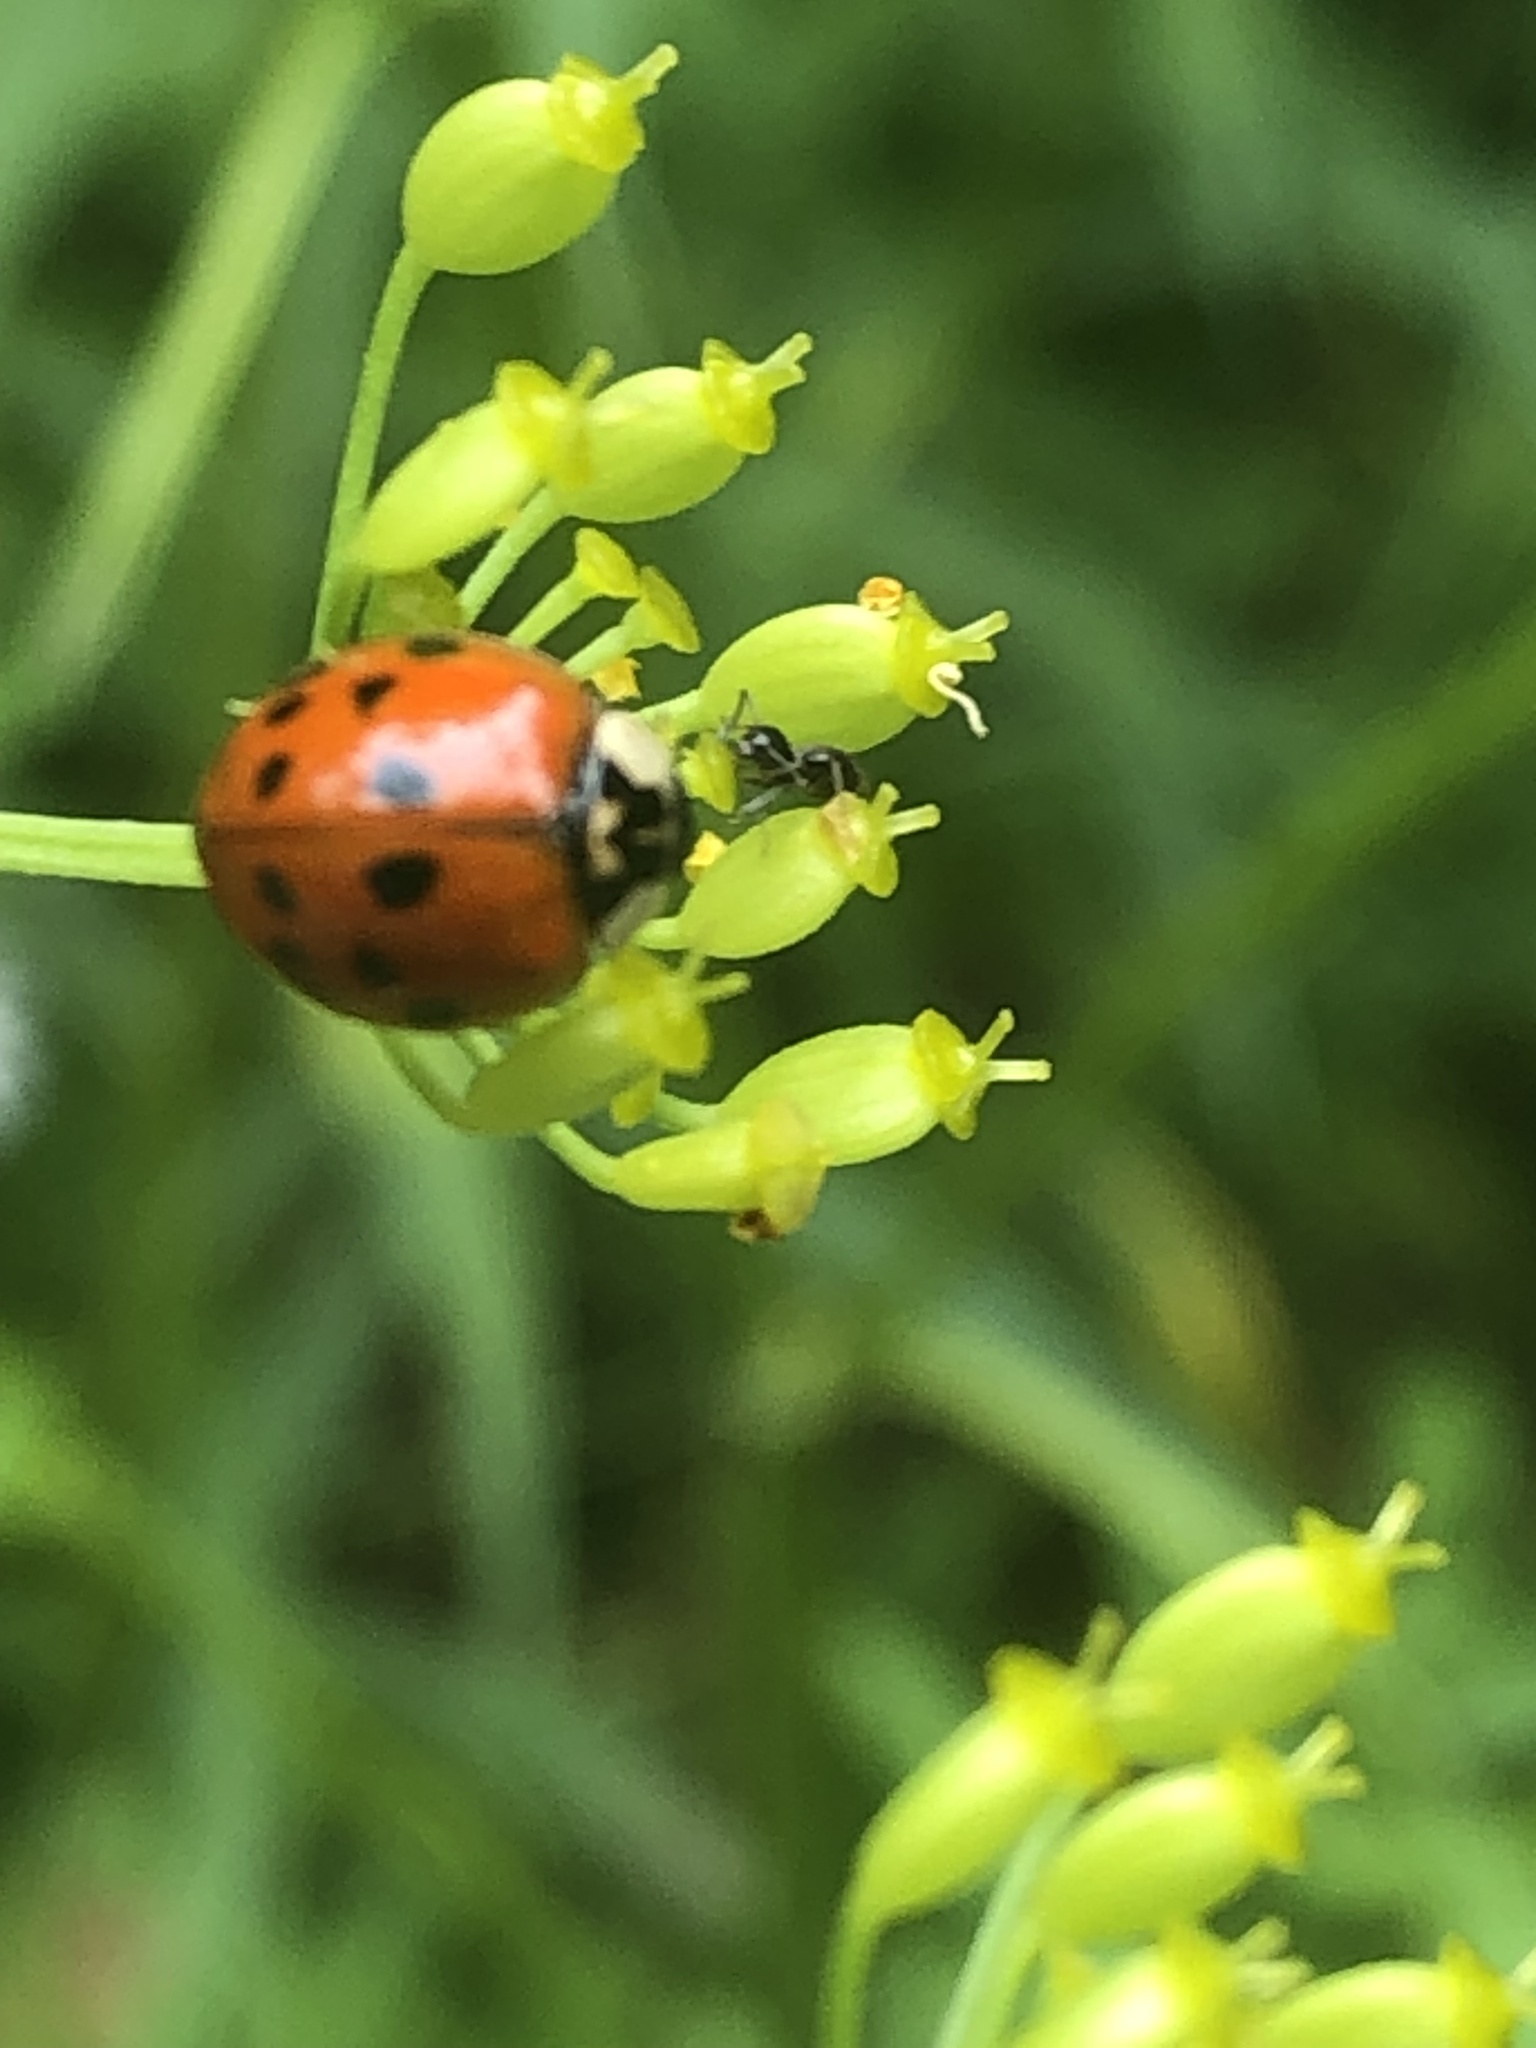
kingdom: Animalia
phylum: Arthropoda
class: Insecta
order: Coleoptera
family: Coccinellidae
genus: Harmonia
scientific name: Harmonia axyridis
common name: Harlequin ladybird
